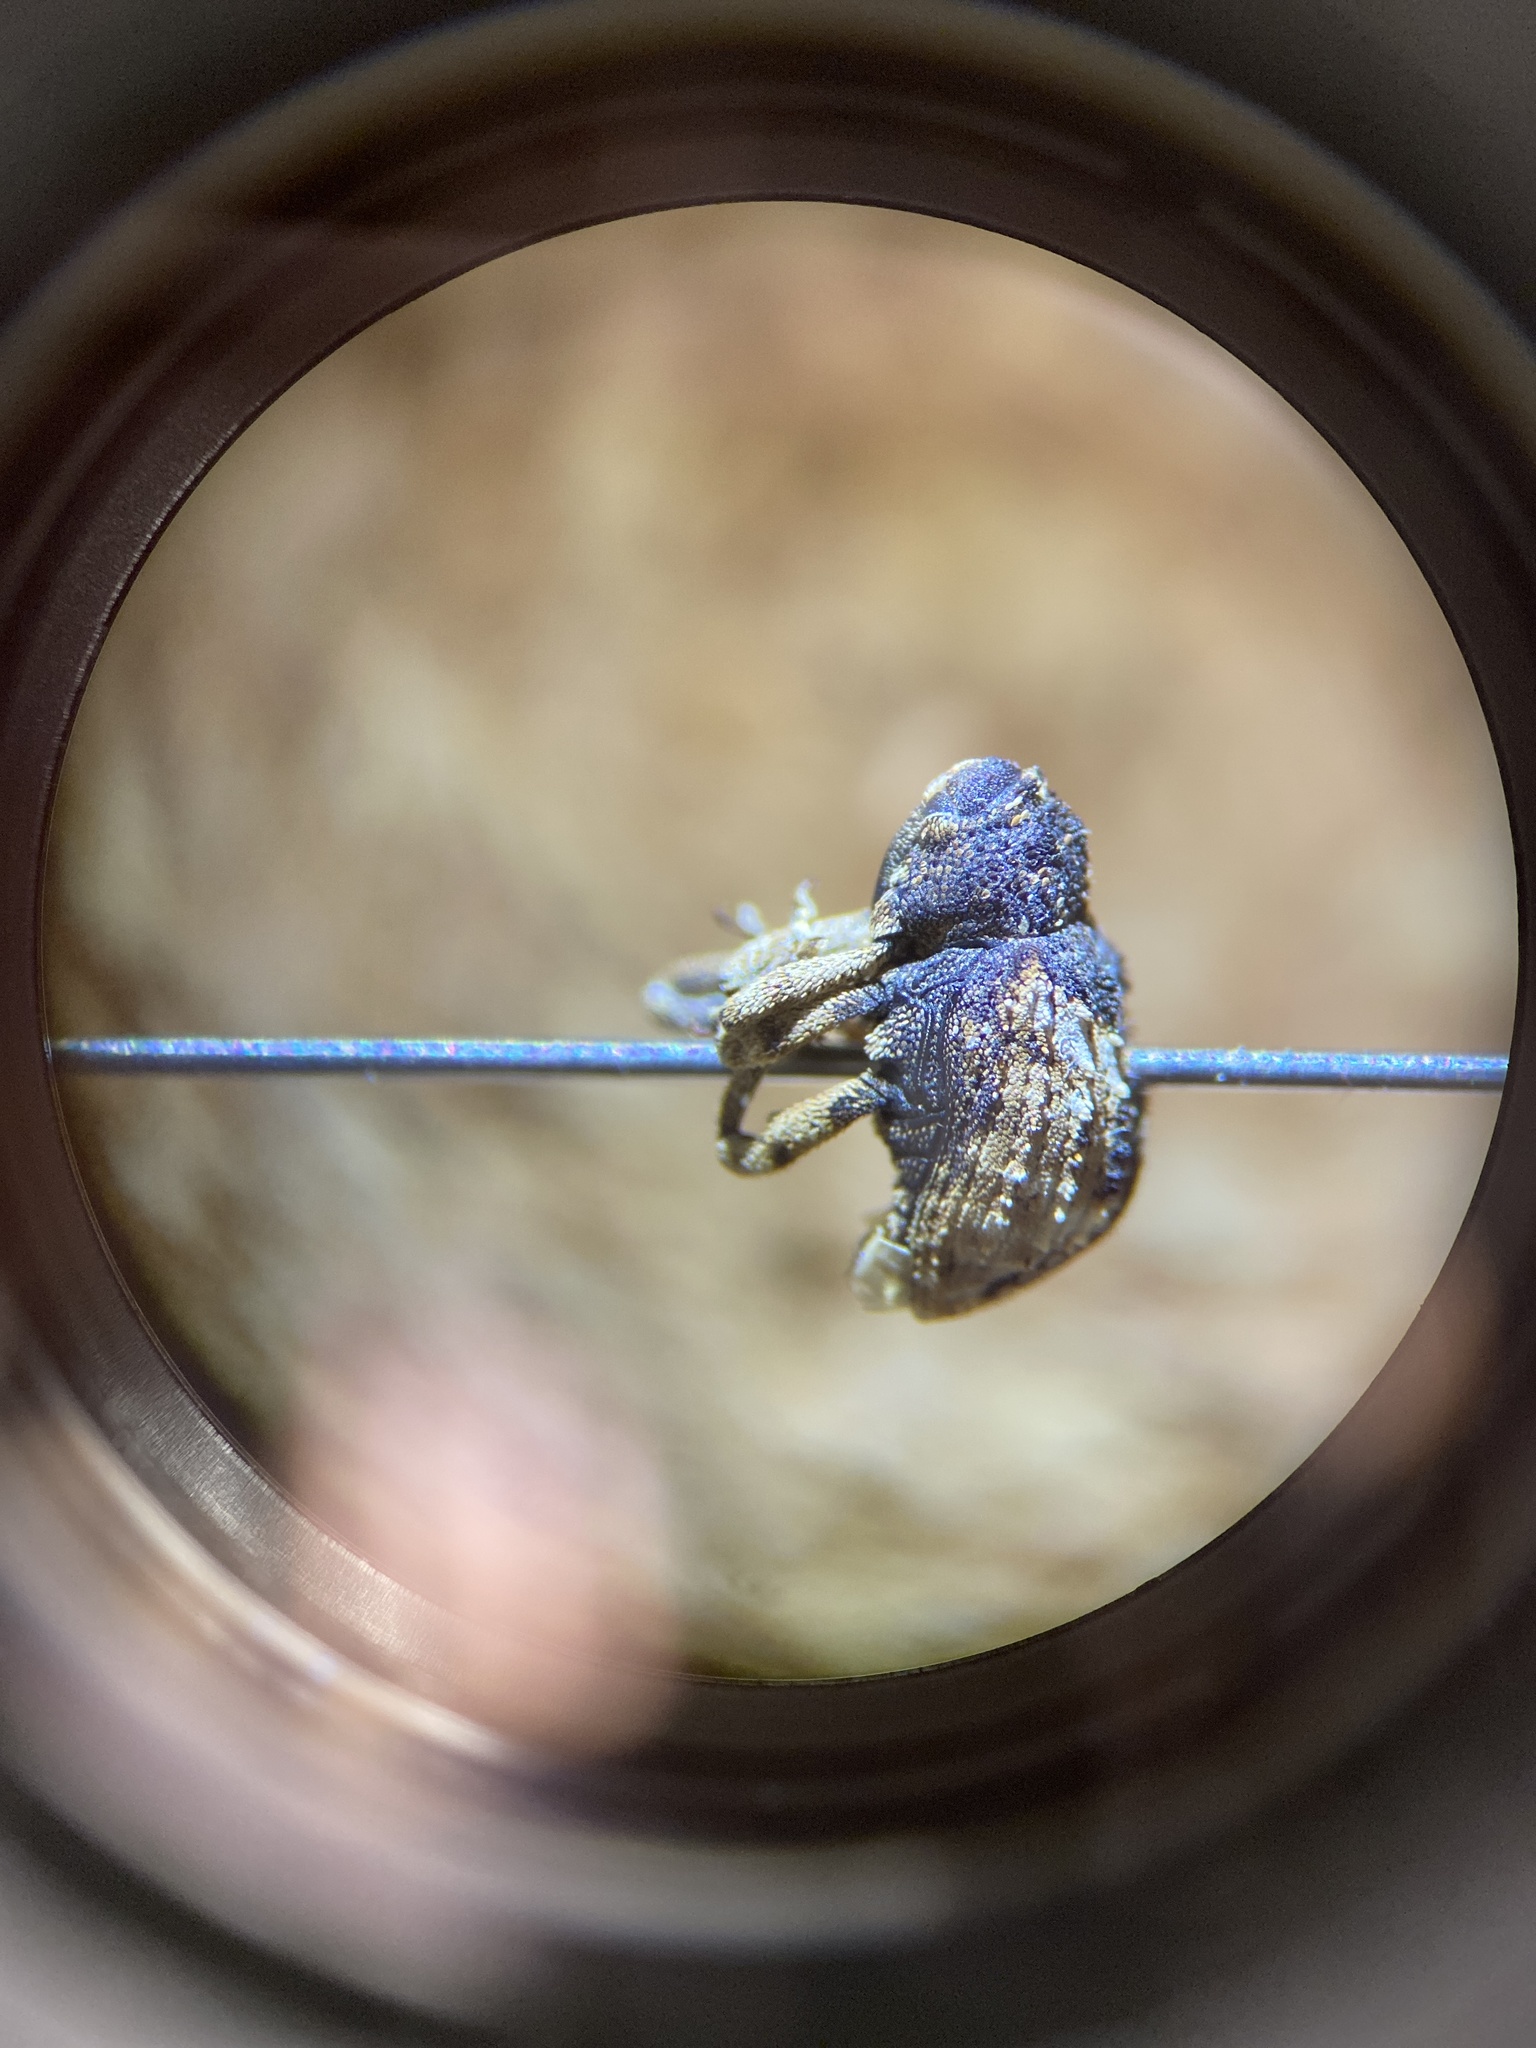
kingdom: Animalia
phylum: Arthropoda
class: Insecta
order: Coleoptera
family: Curculionidae
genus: Cryptorhynchus
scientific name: Cryptorhynchus fuscatus
